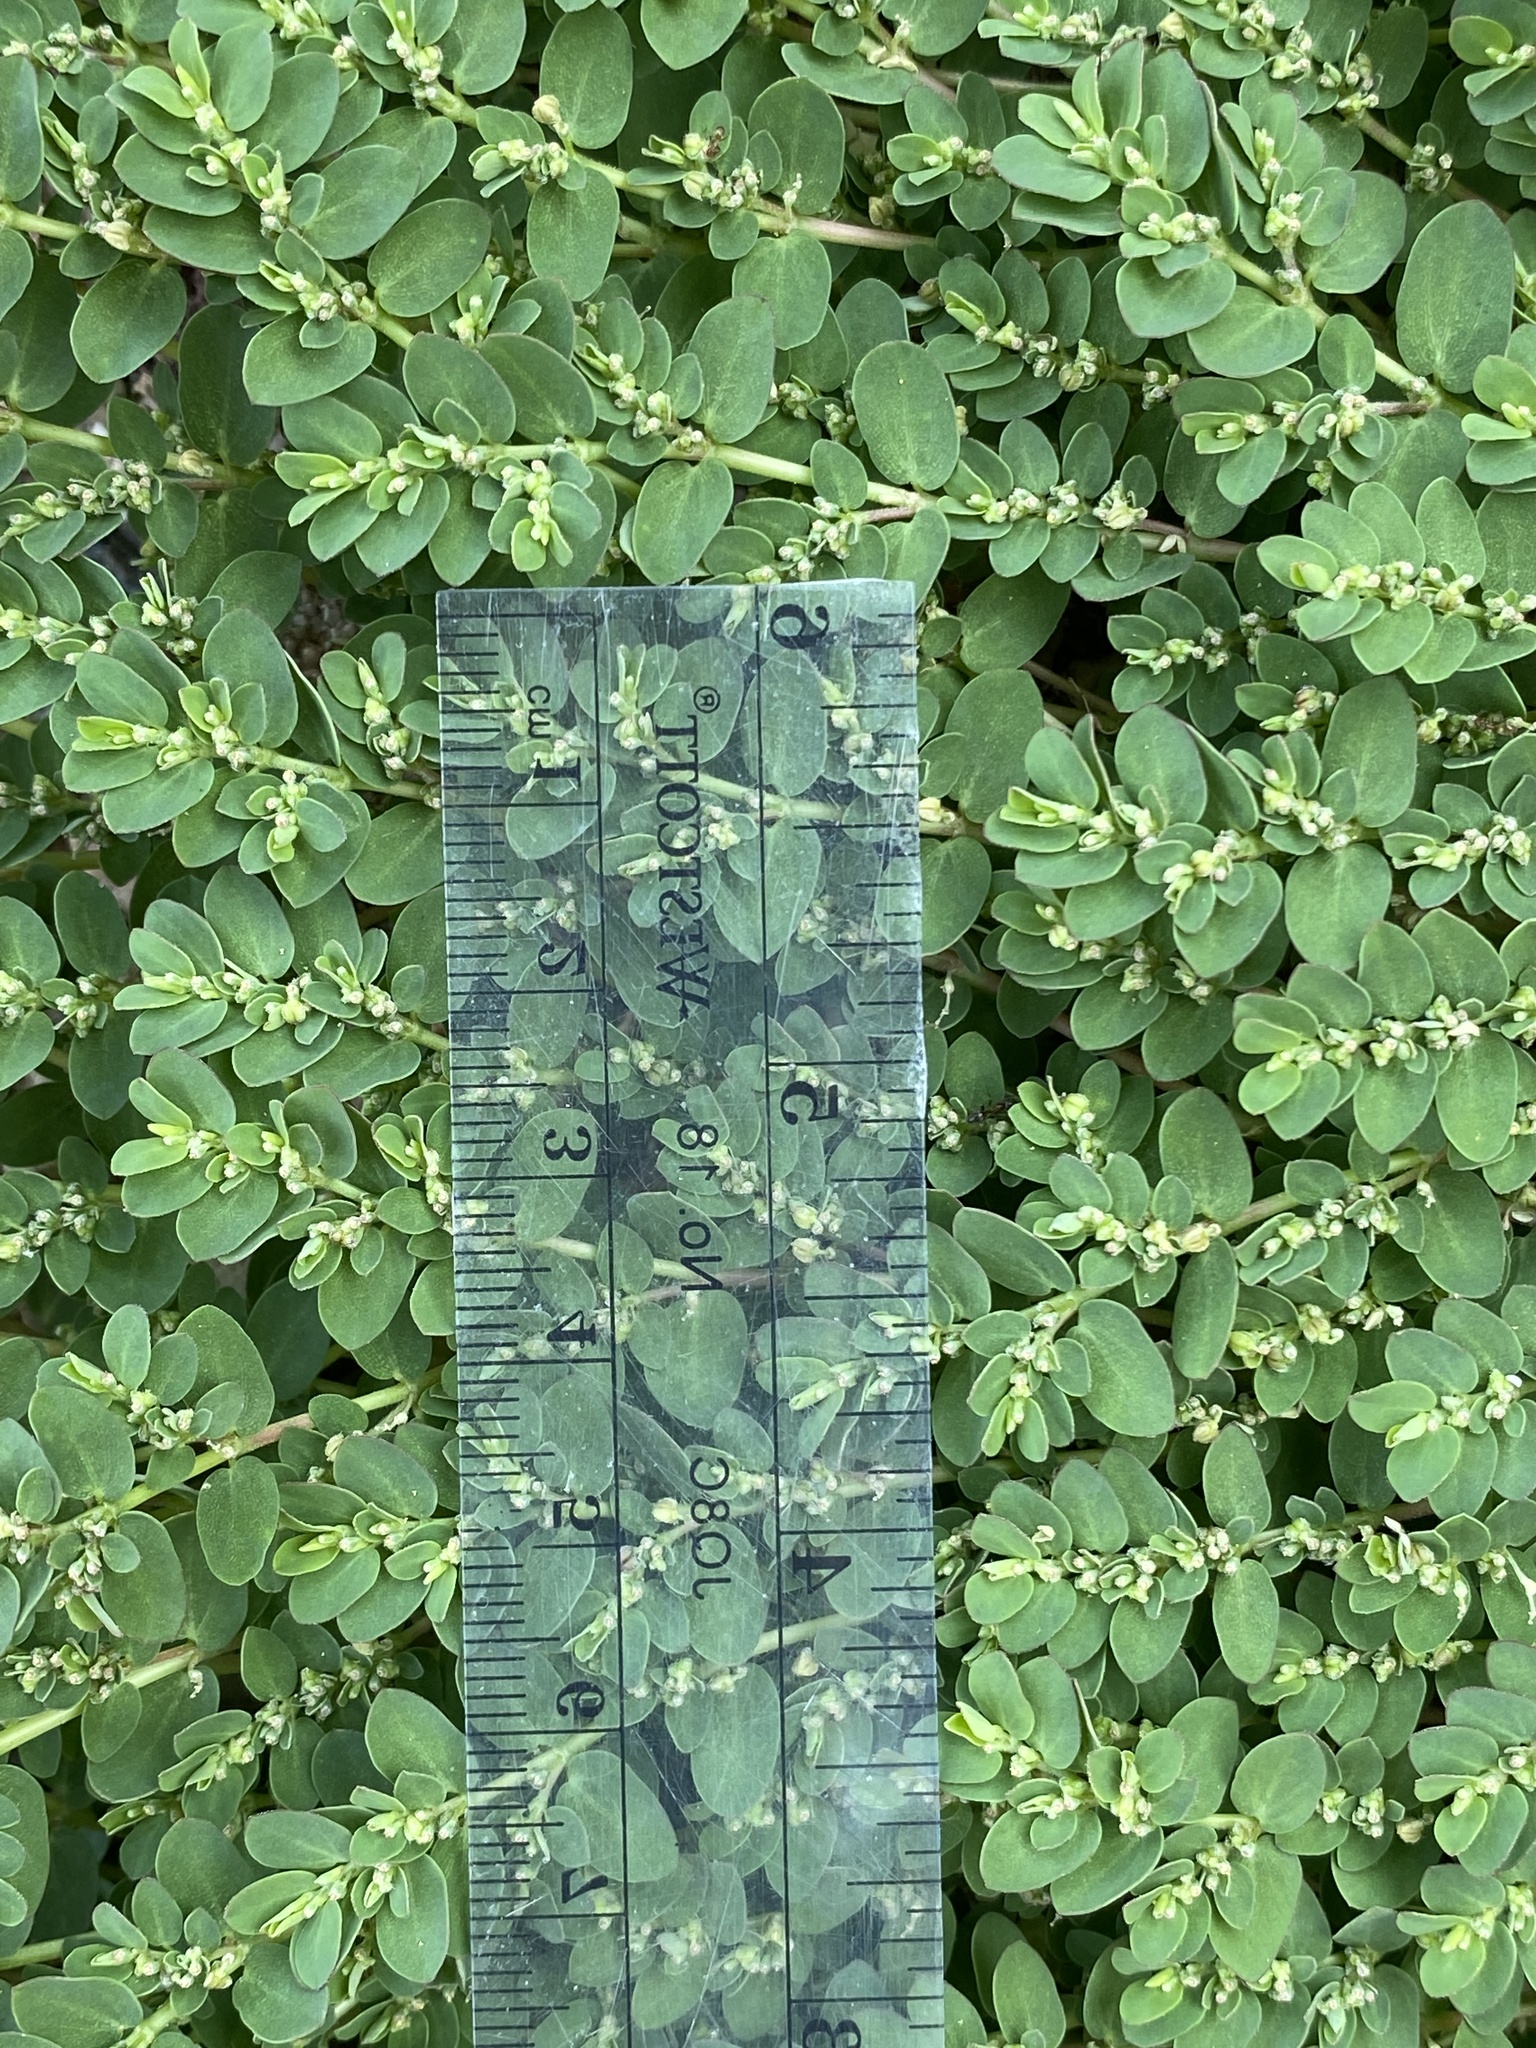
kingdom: Plantae
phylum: Tracheophyta
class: Magnoliopsida
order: Malpighiales
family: Euphorbiaceae
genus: Euphorbia
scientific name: Euphorbia prostrata
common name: Prostrate sandmat
